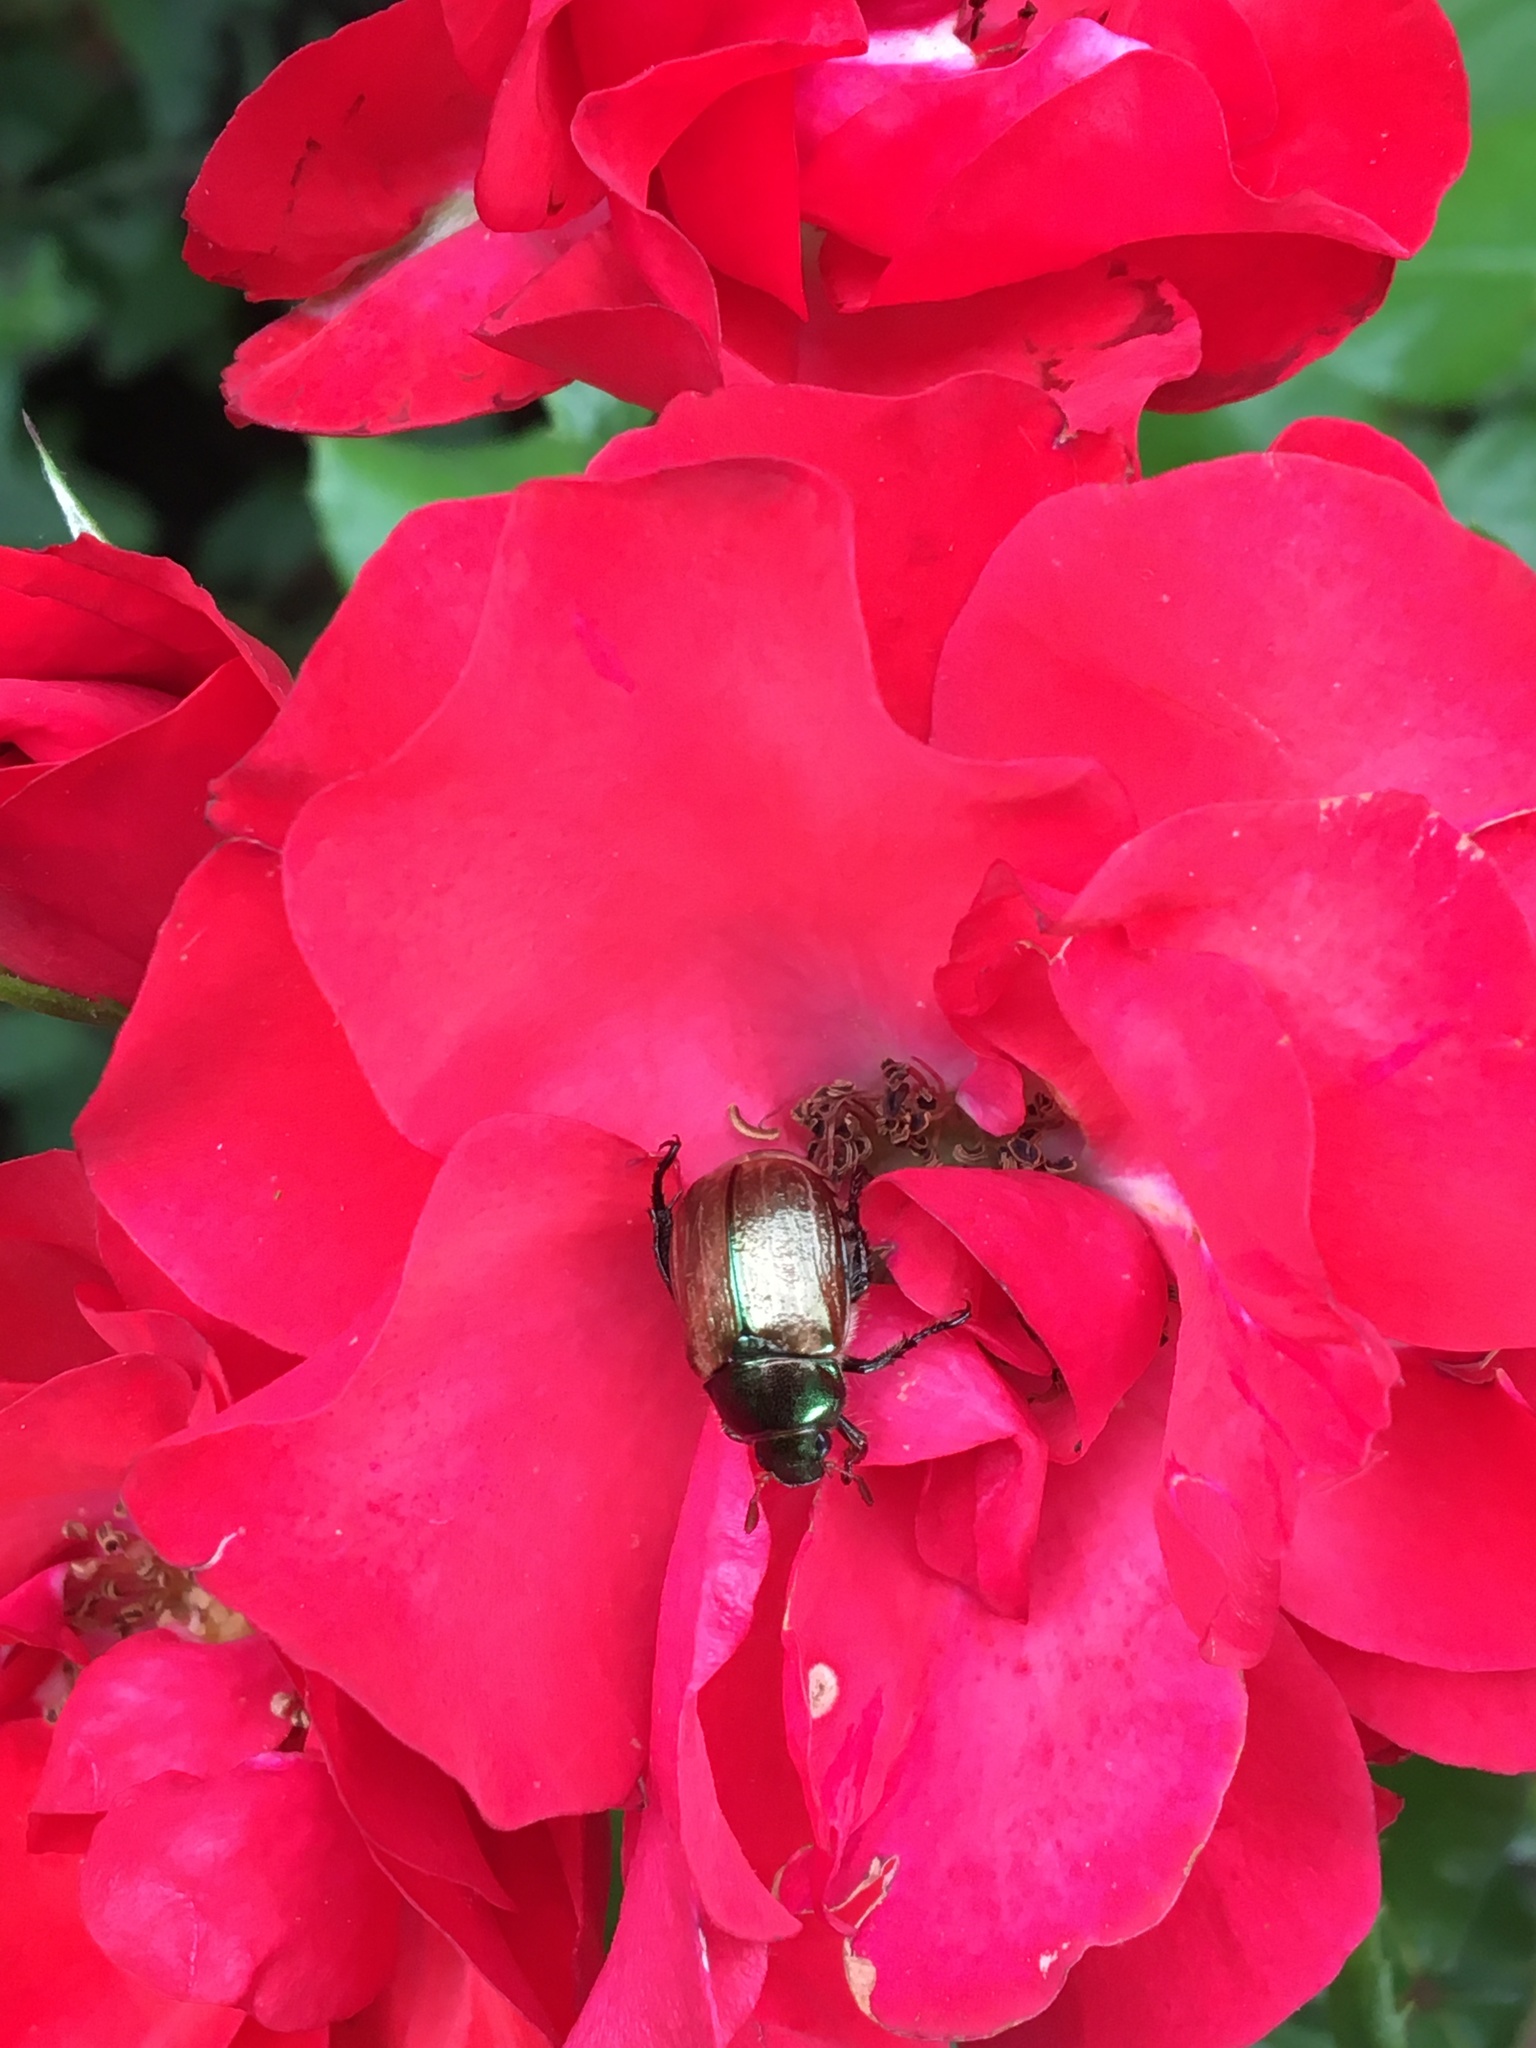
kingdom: Animalia
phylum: Arthropoda
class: Insecta
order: Coleoptera
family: Scarabaeidae
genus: Mimela
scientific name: Mimela junii
